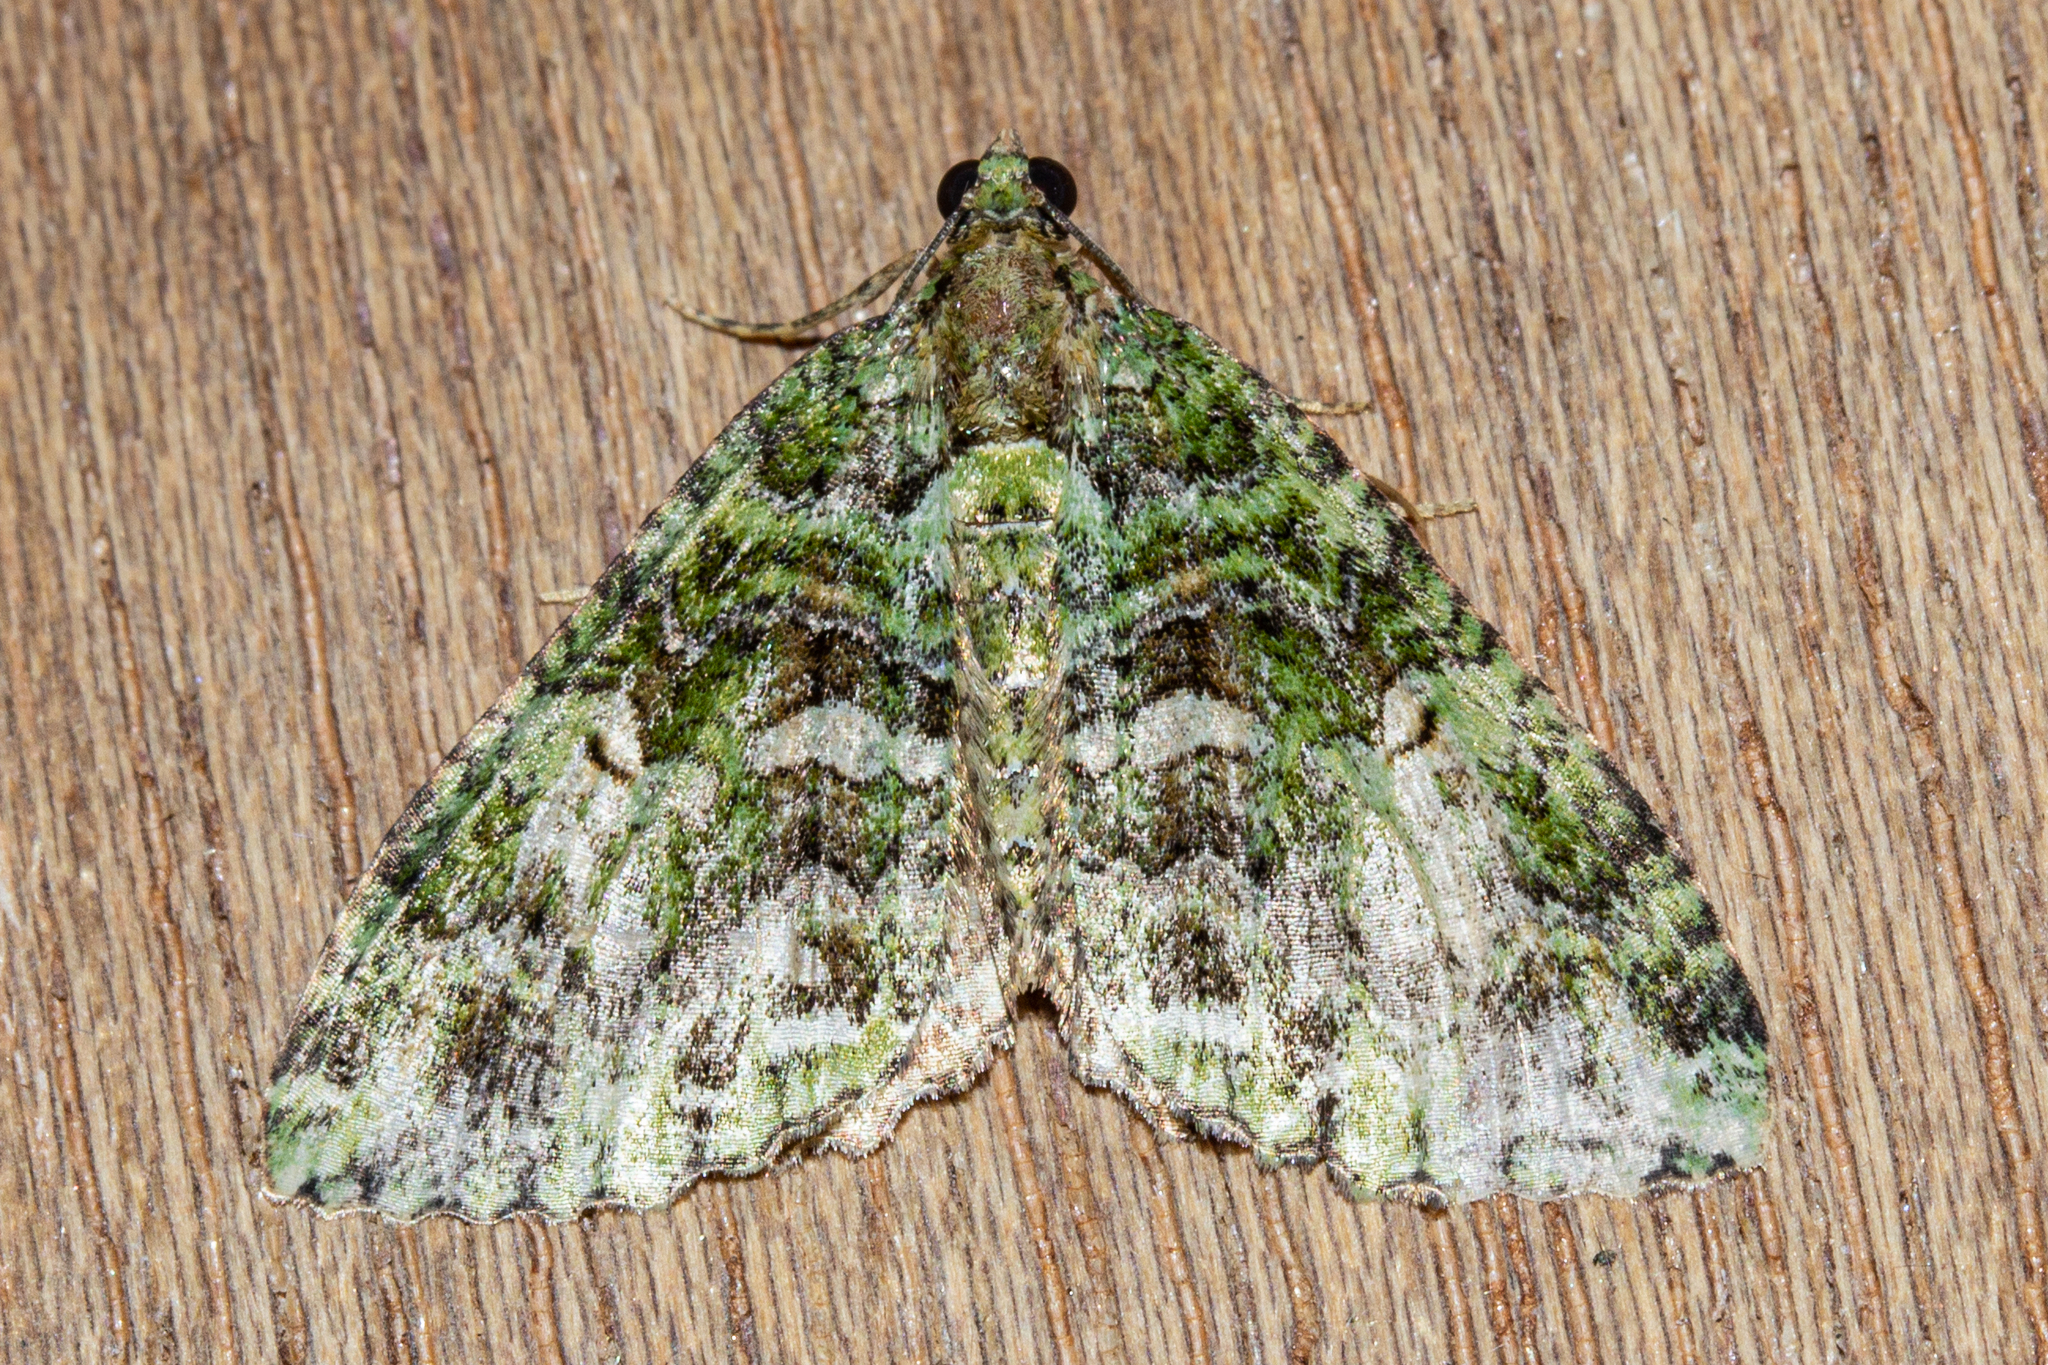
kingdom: Animalia
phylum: Arthropoda
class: Insecta
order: Lepidoptera
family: Geometridae
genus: Austrocidaria
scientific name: Austrocidaria similata
